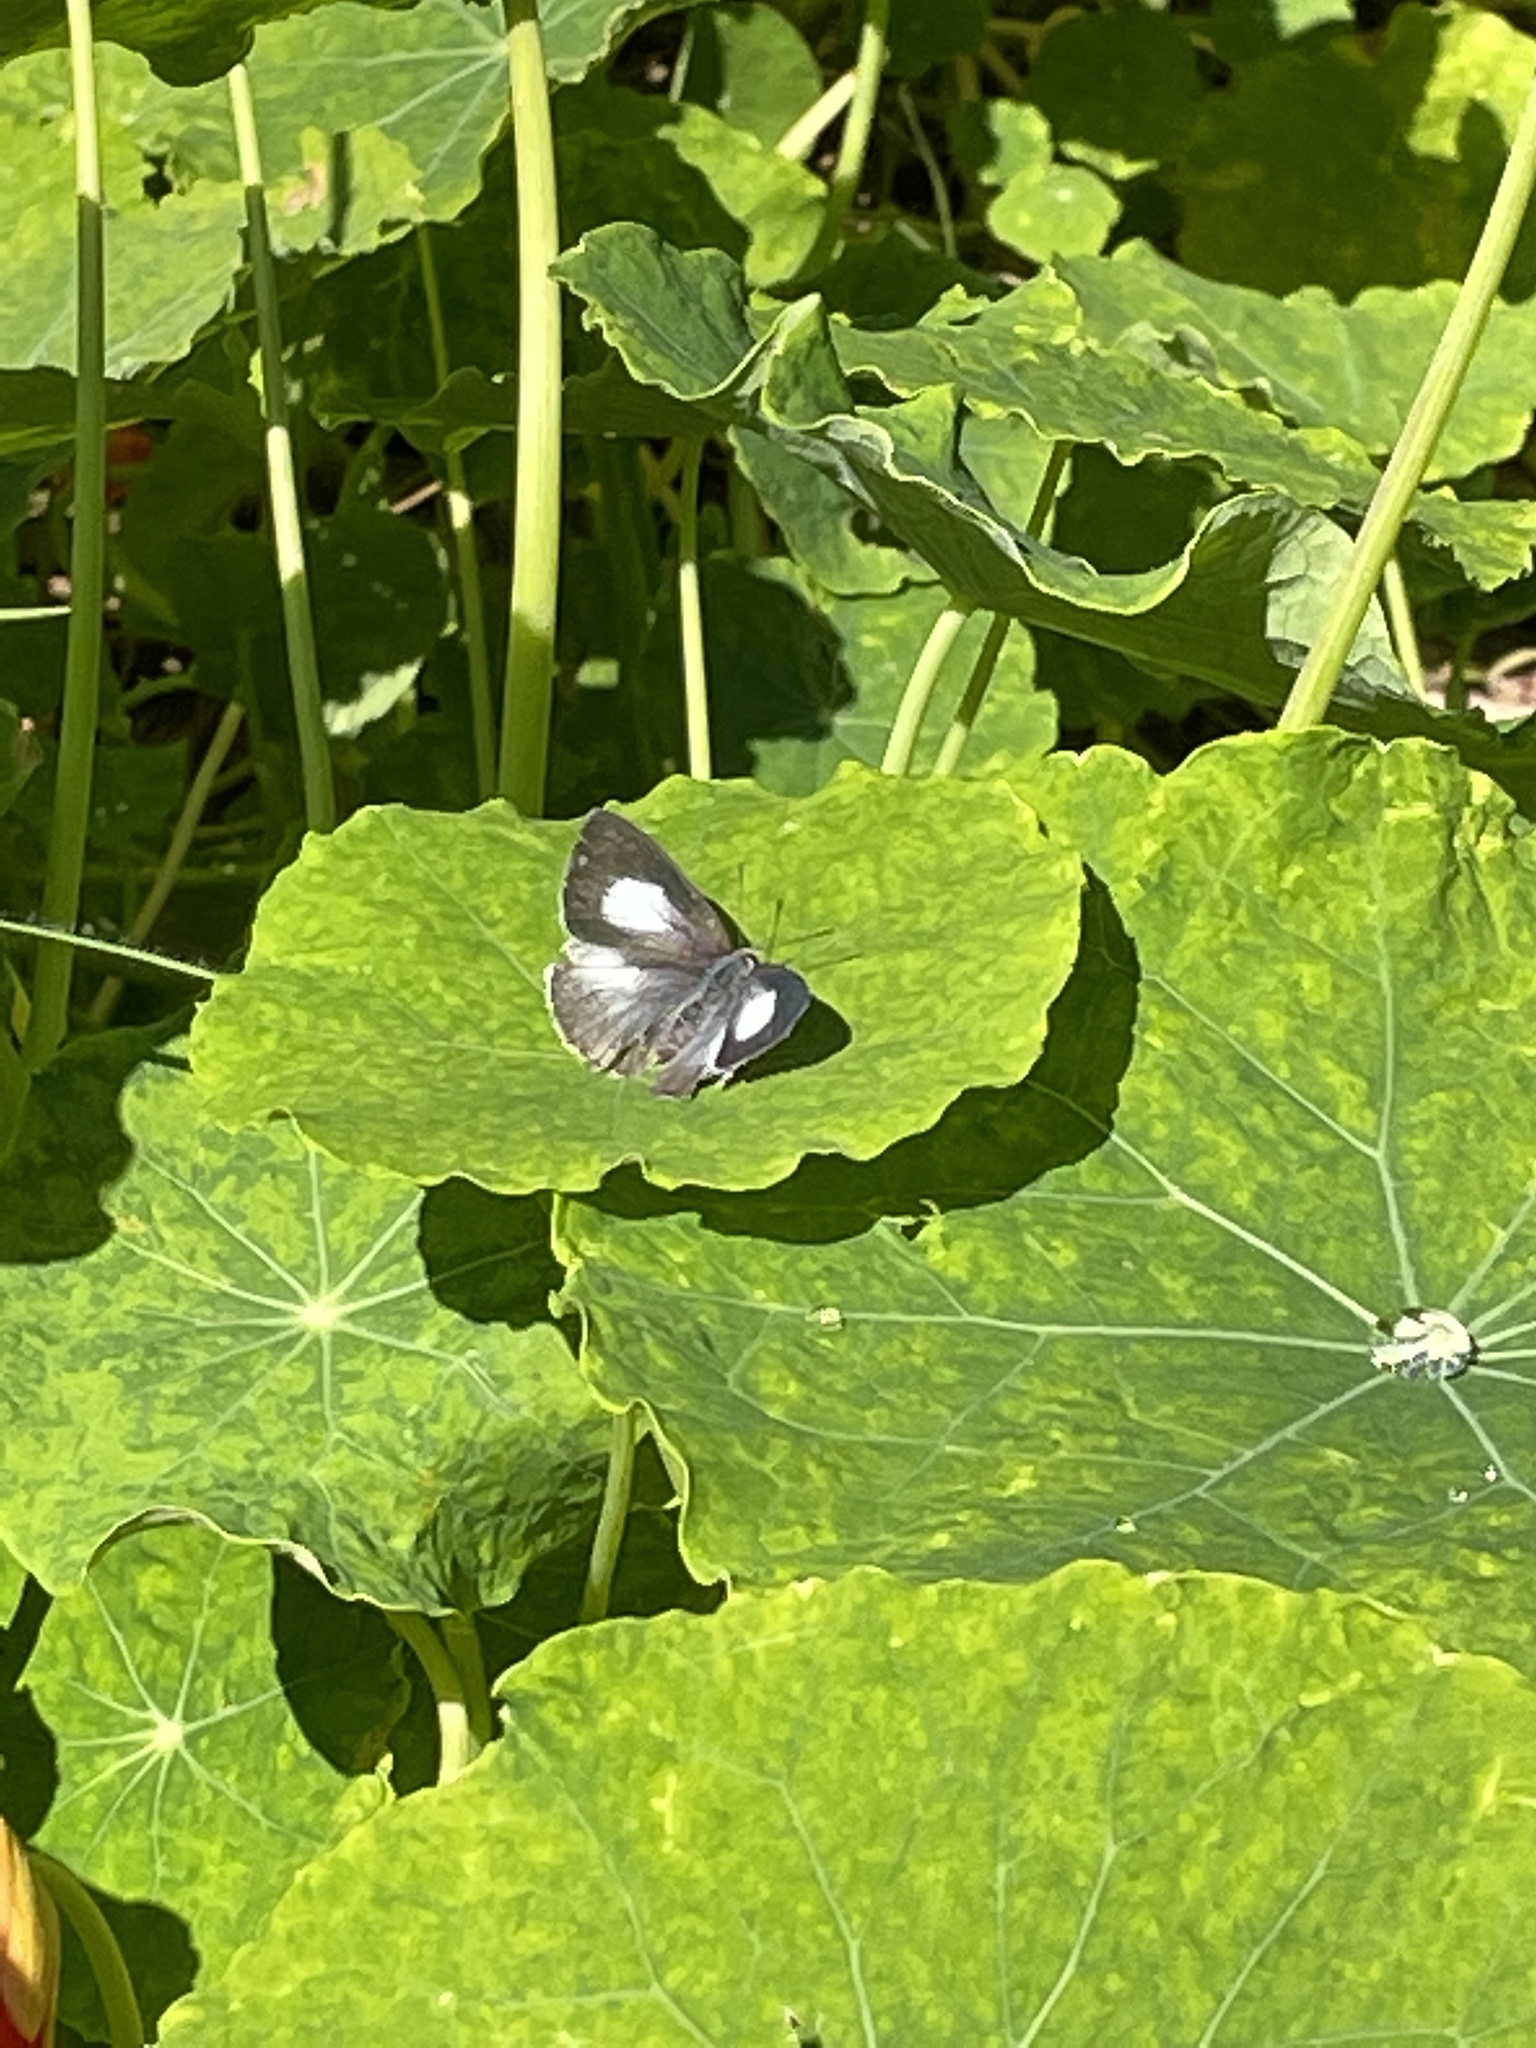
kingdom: Animalia
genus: Eirmocides
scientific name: Eirmocides
